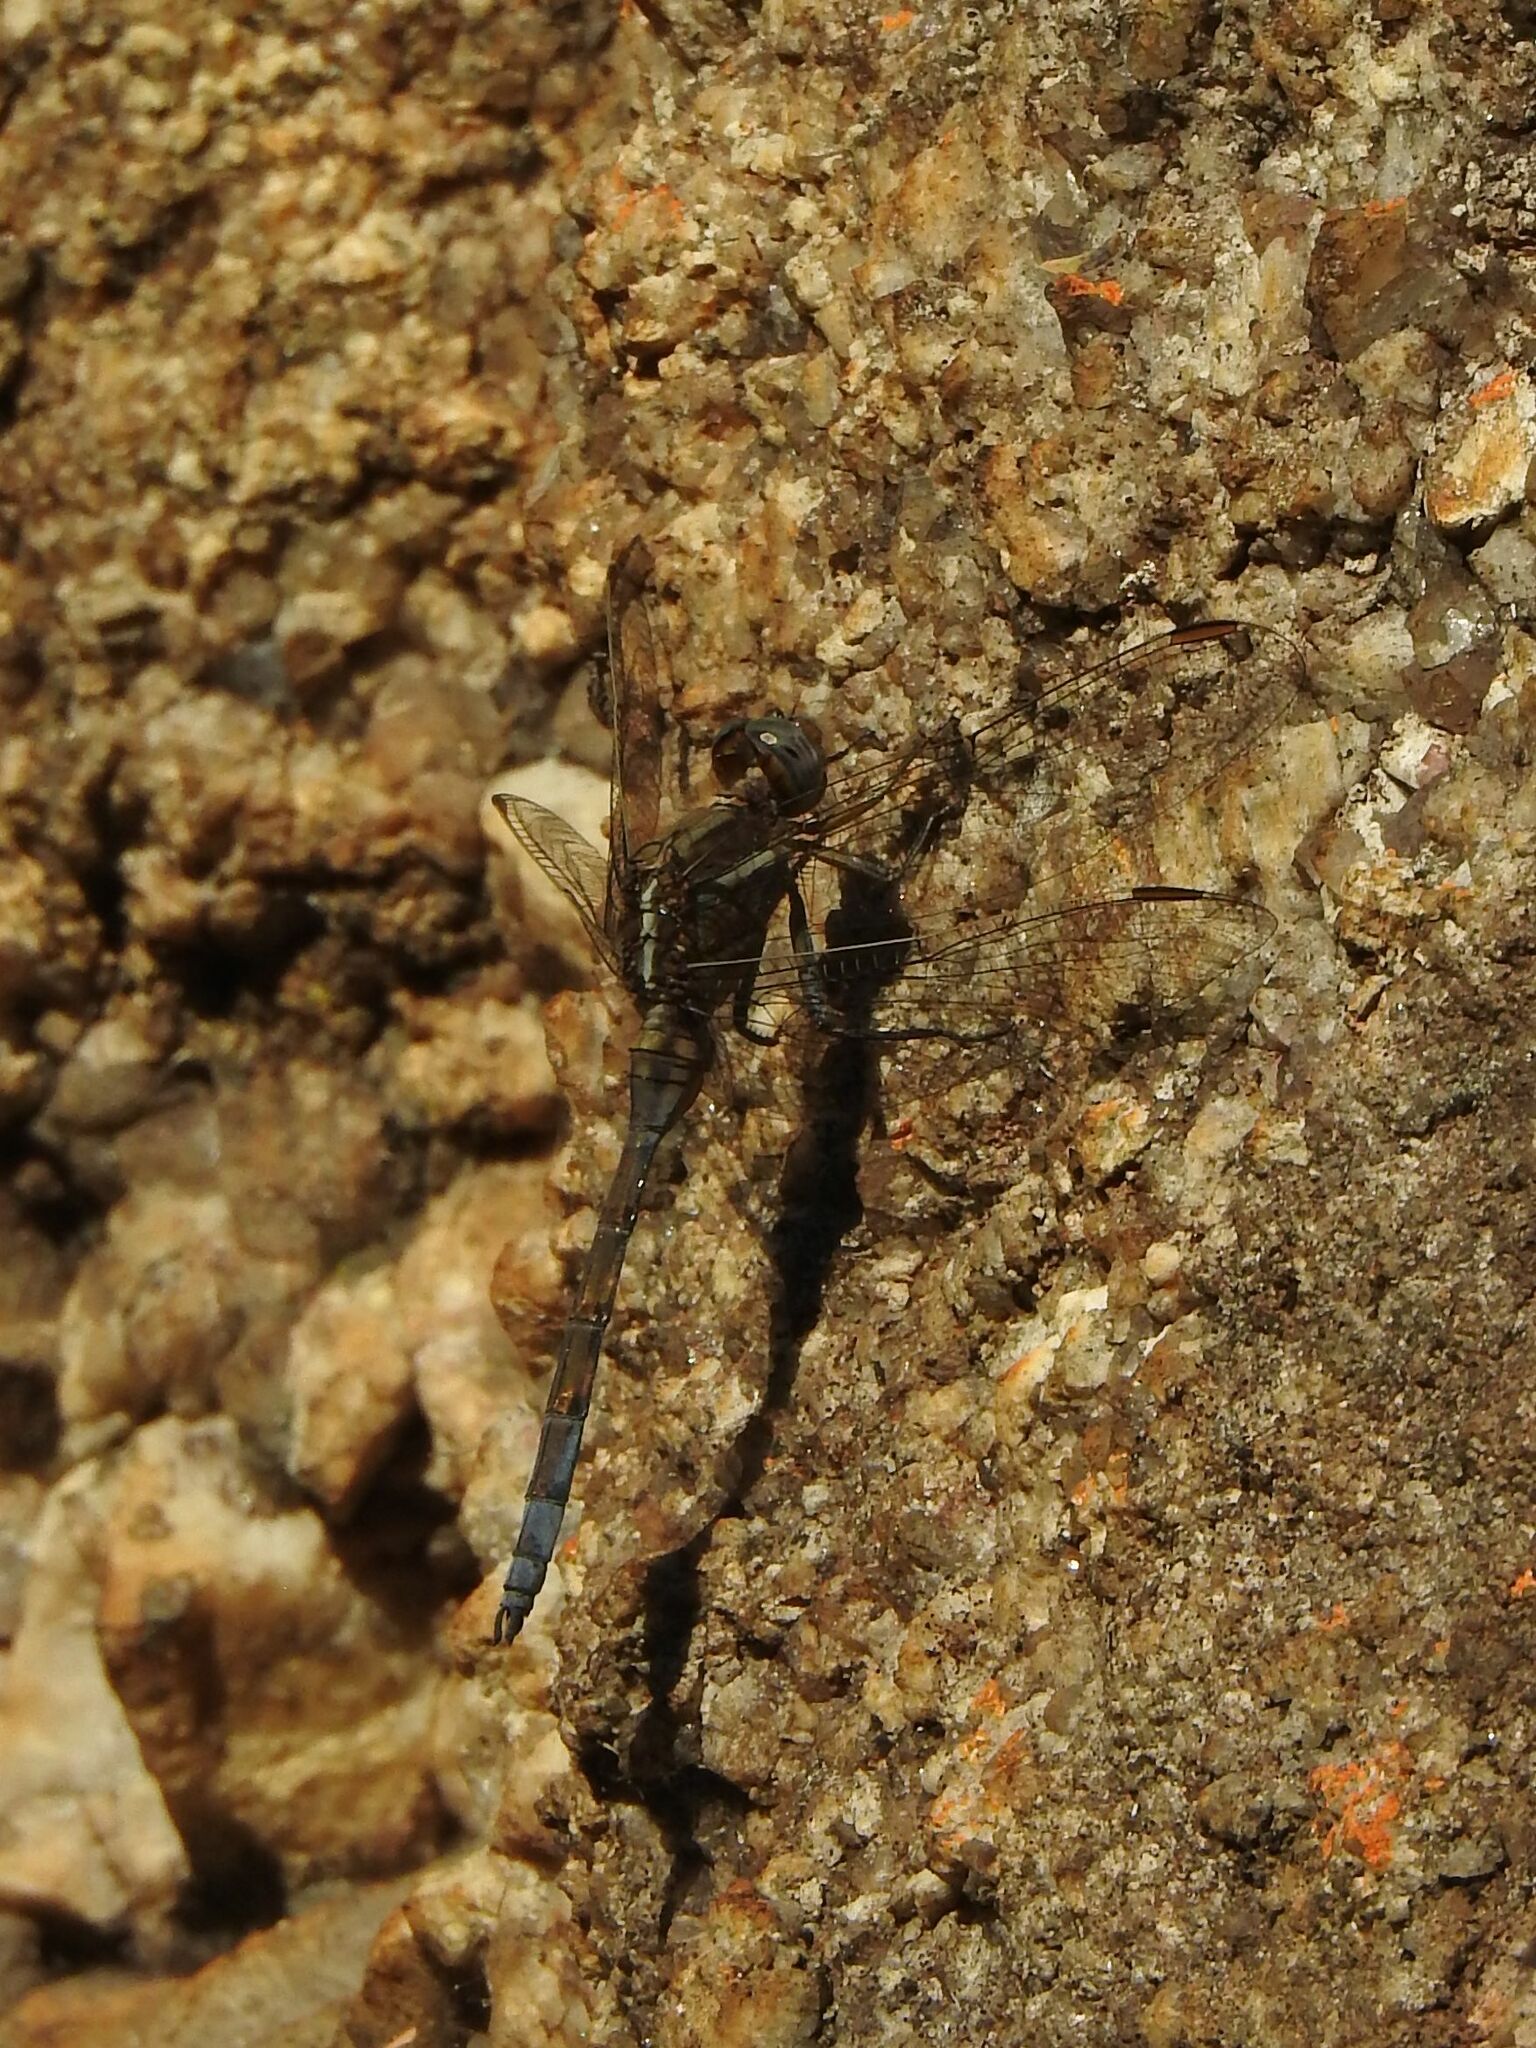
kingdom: Animalia
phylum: Arthropoda
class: Insecta
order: Odonata
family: Libellulidae
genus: Orthetrum
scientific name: Orthetrum chrysostigma
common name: Epaulet skimmer
